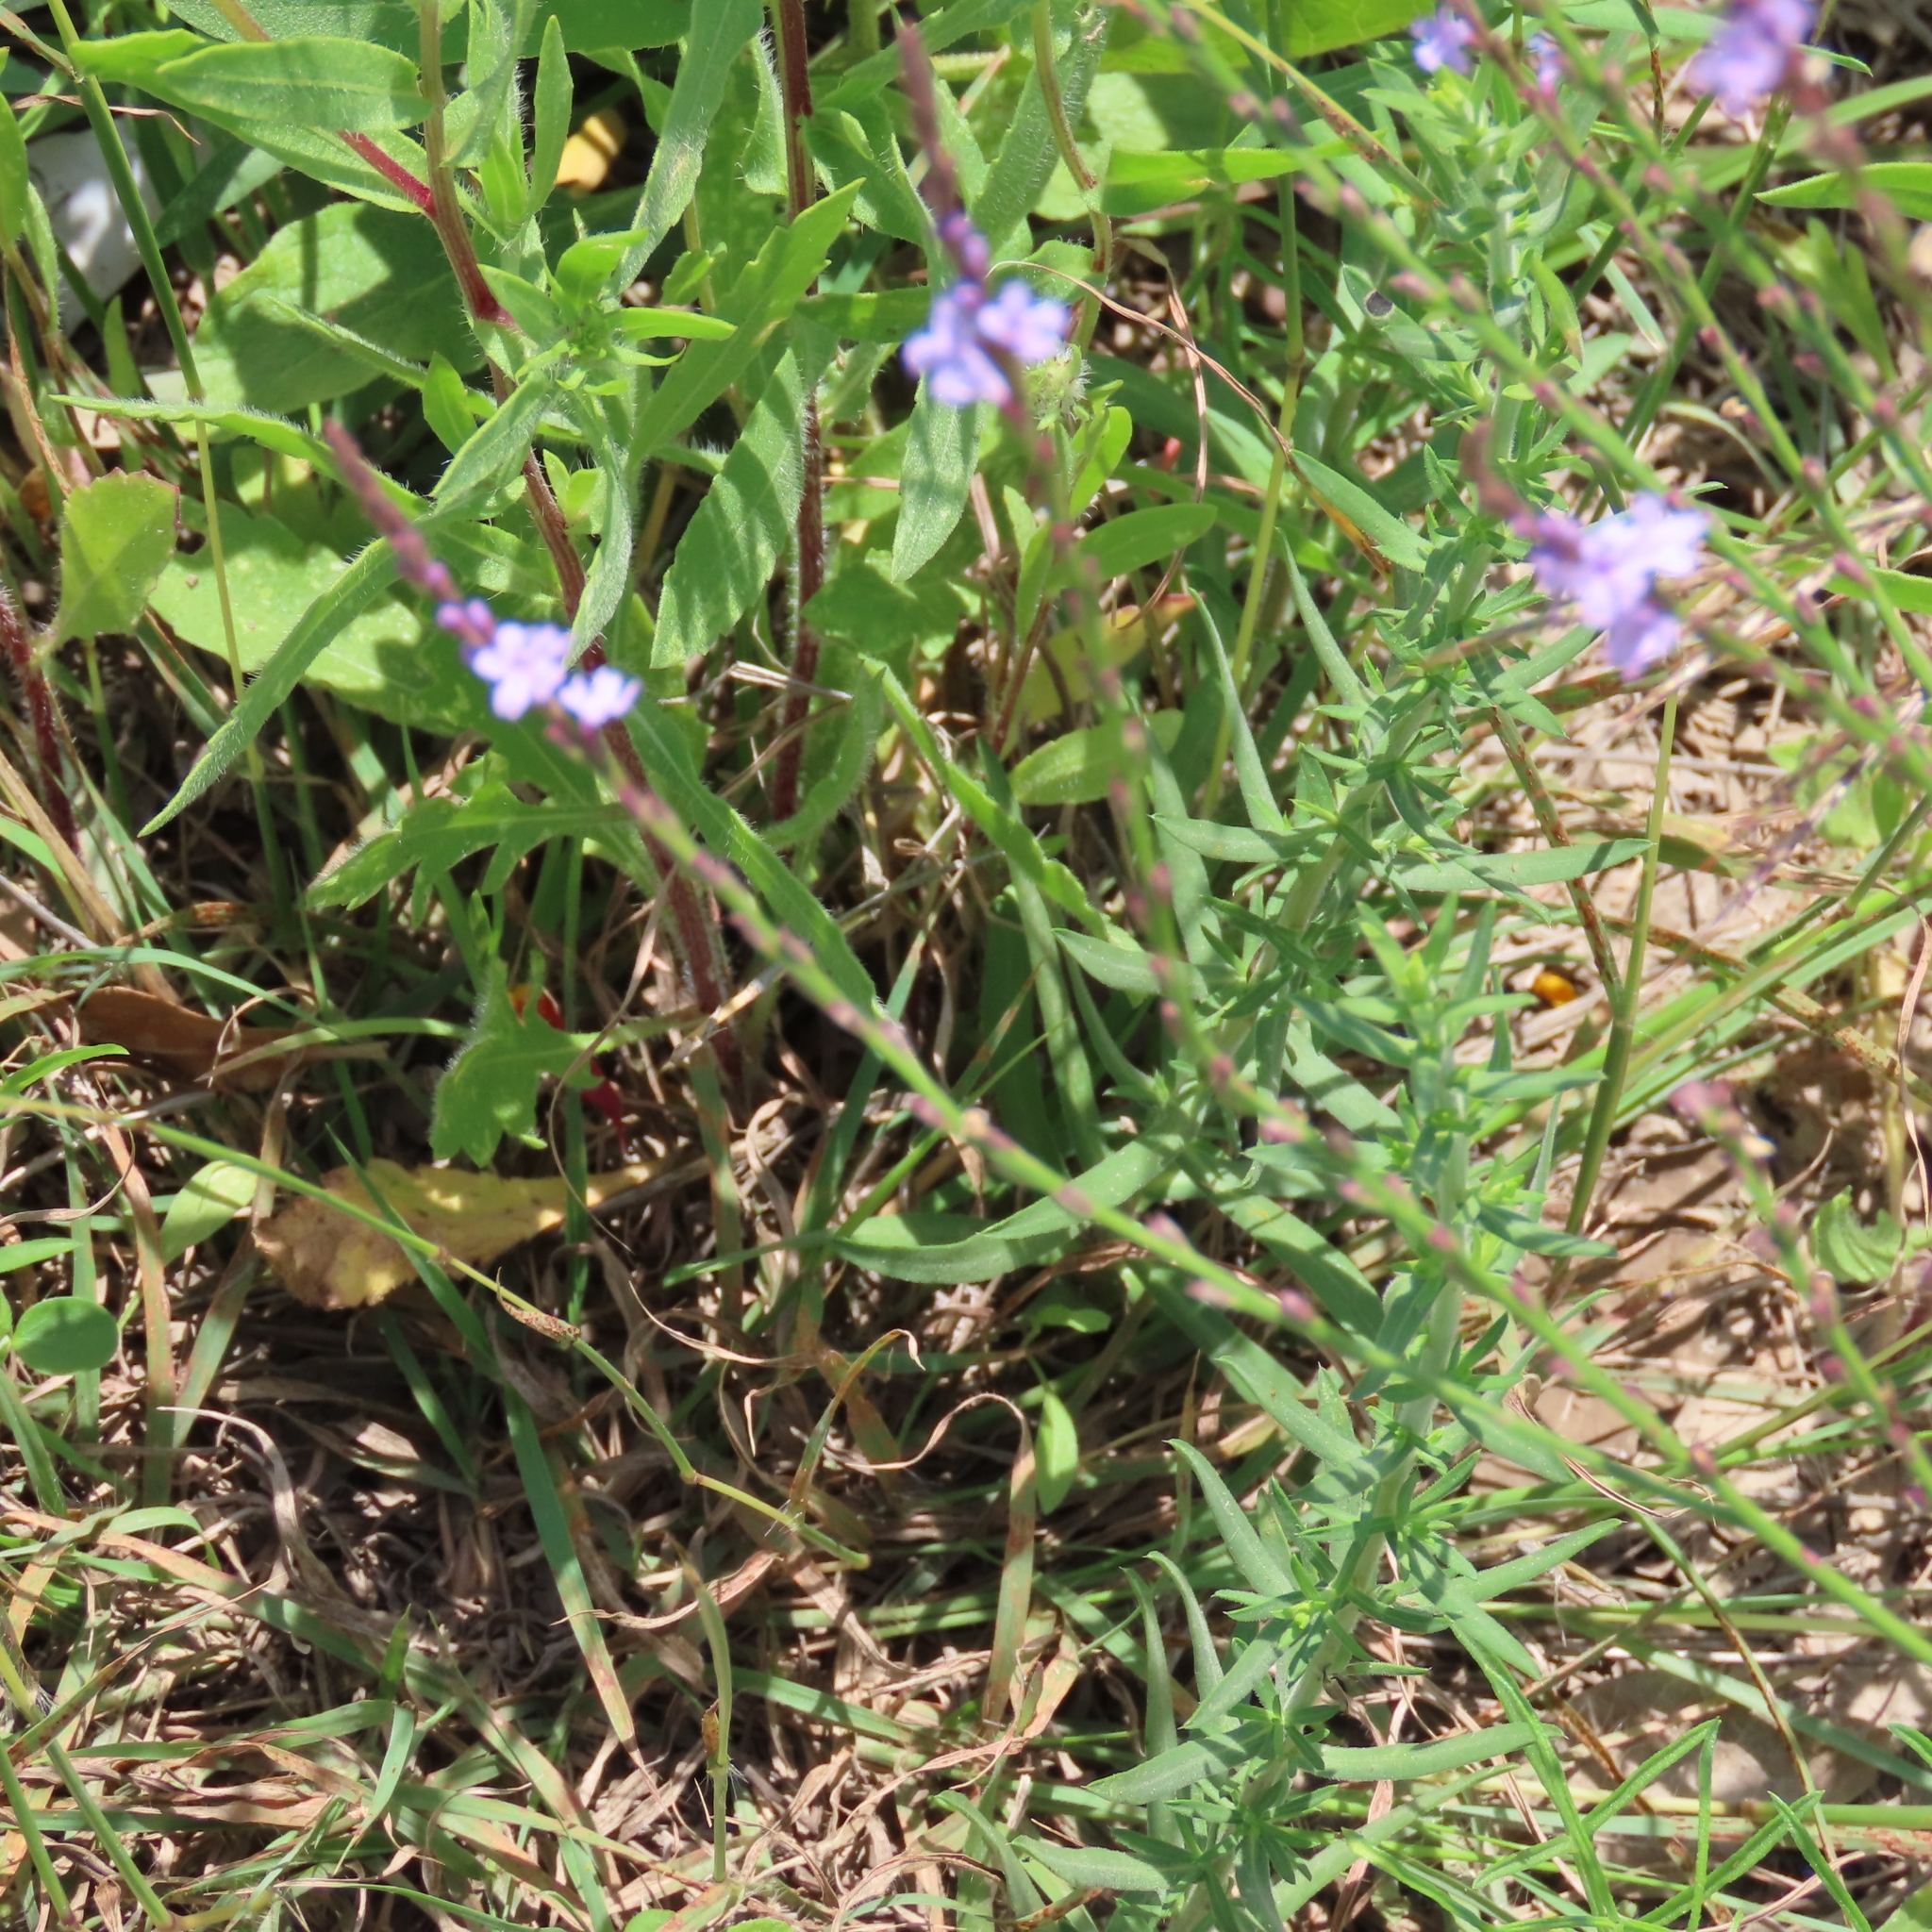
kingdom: Plantae
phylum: Tracheophyta
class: Magnoliopsida
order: Lamiales
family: Verbenaceae
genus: Verbena
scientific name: Verbena halei
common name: Texas vervain
